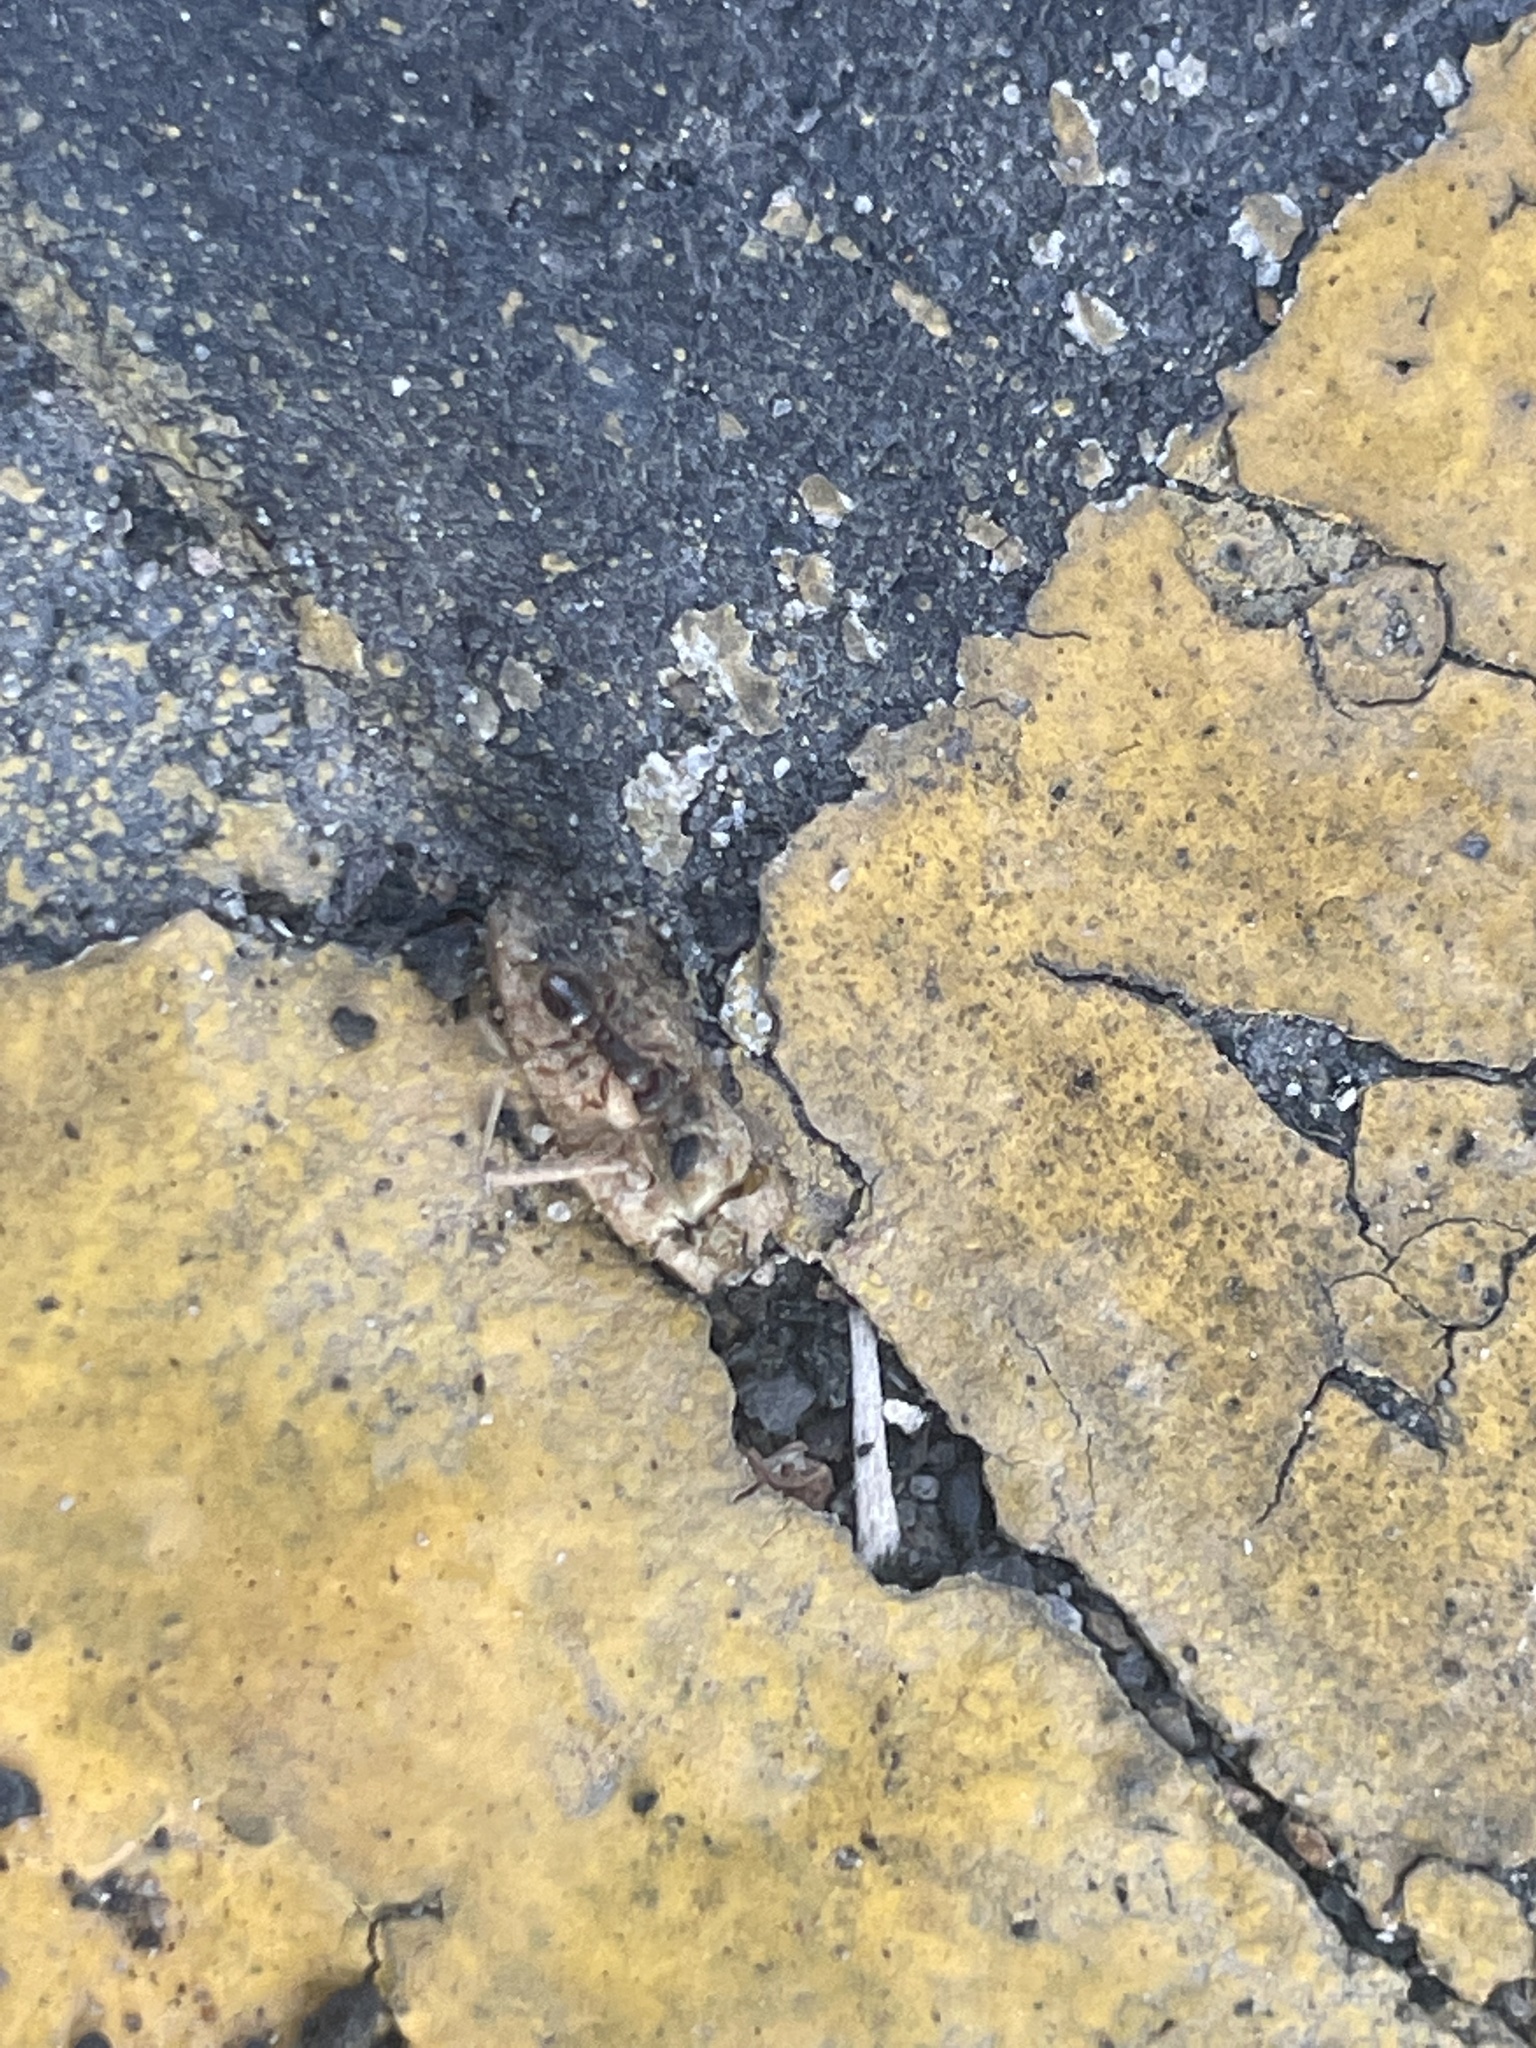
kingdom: Animalia
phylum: Arthropoda
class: Insecta
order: Hymenoptera
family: Formicidae
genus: Tetramorium
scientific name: Tetramorium immigrans
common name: Pavement ant
